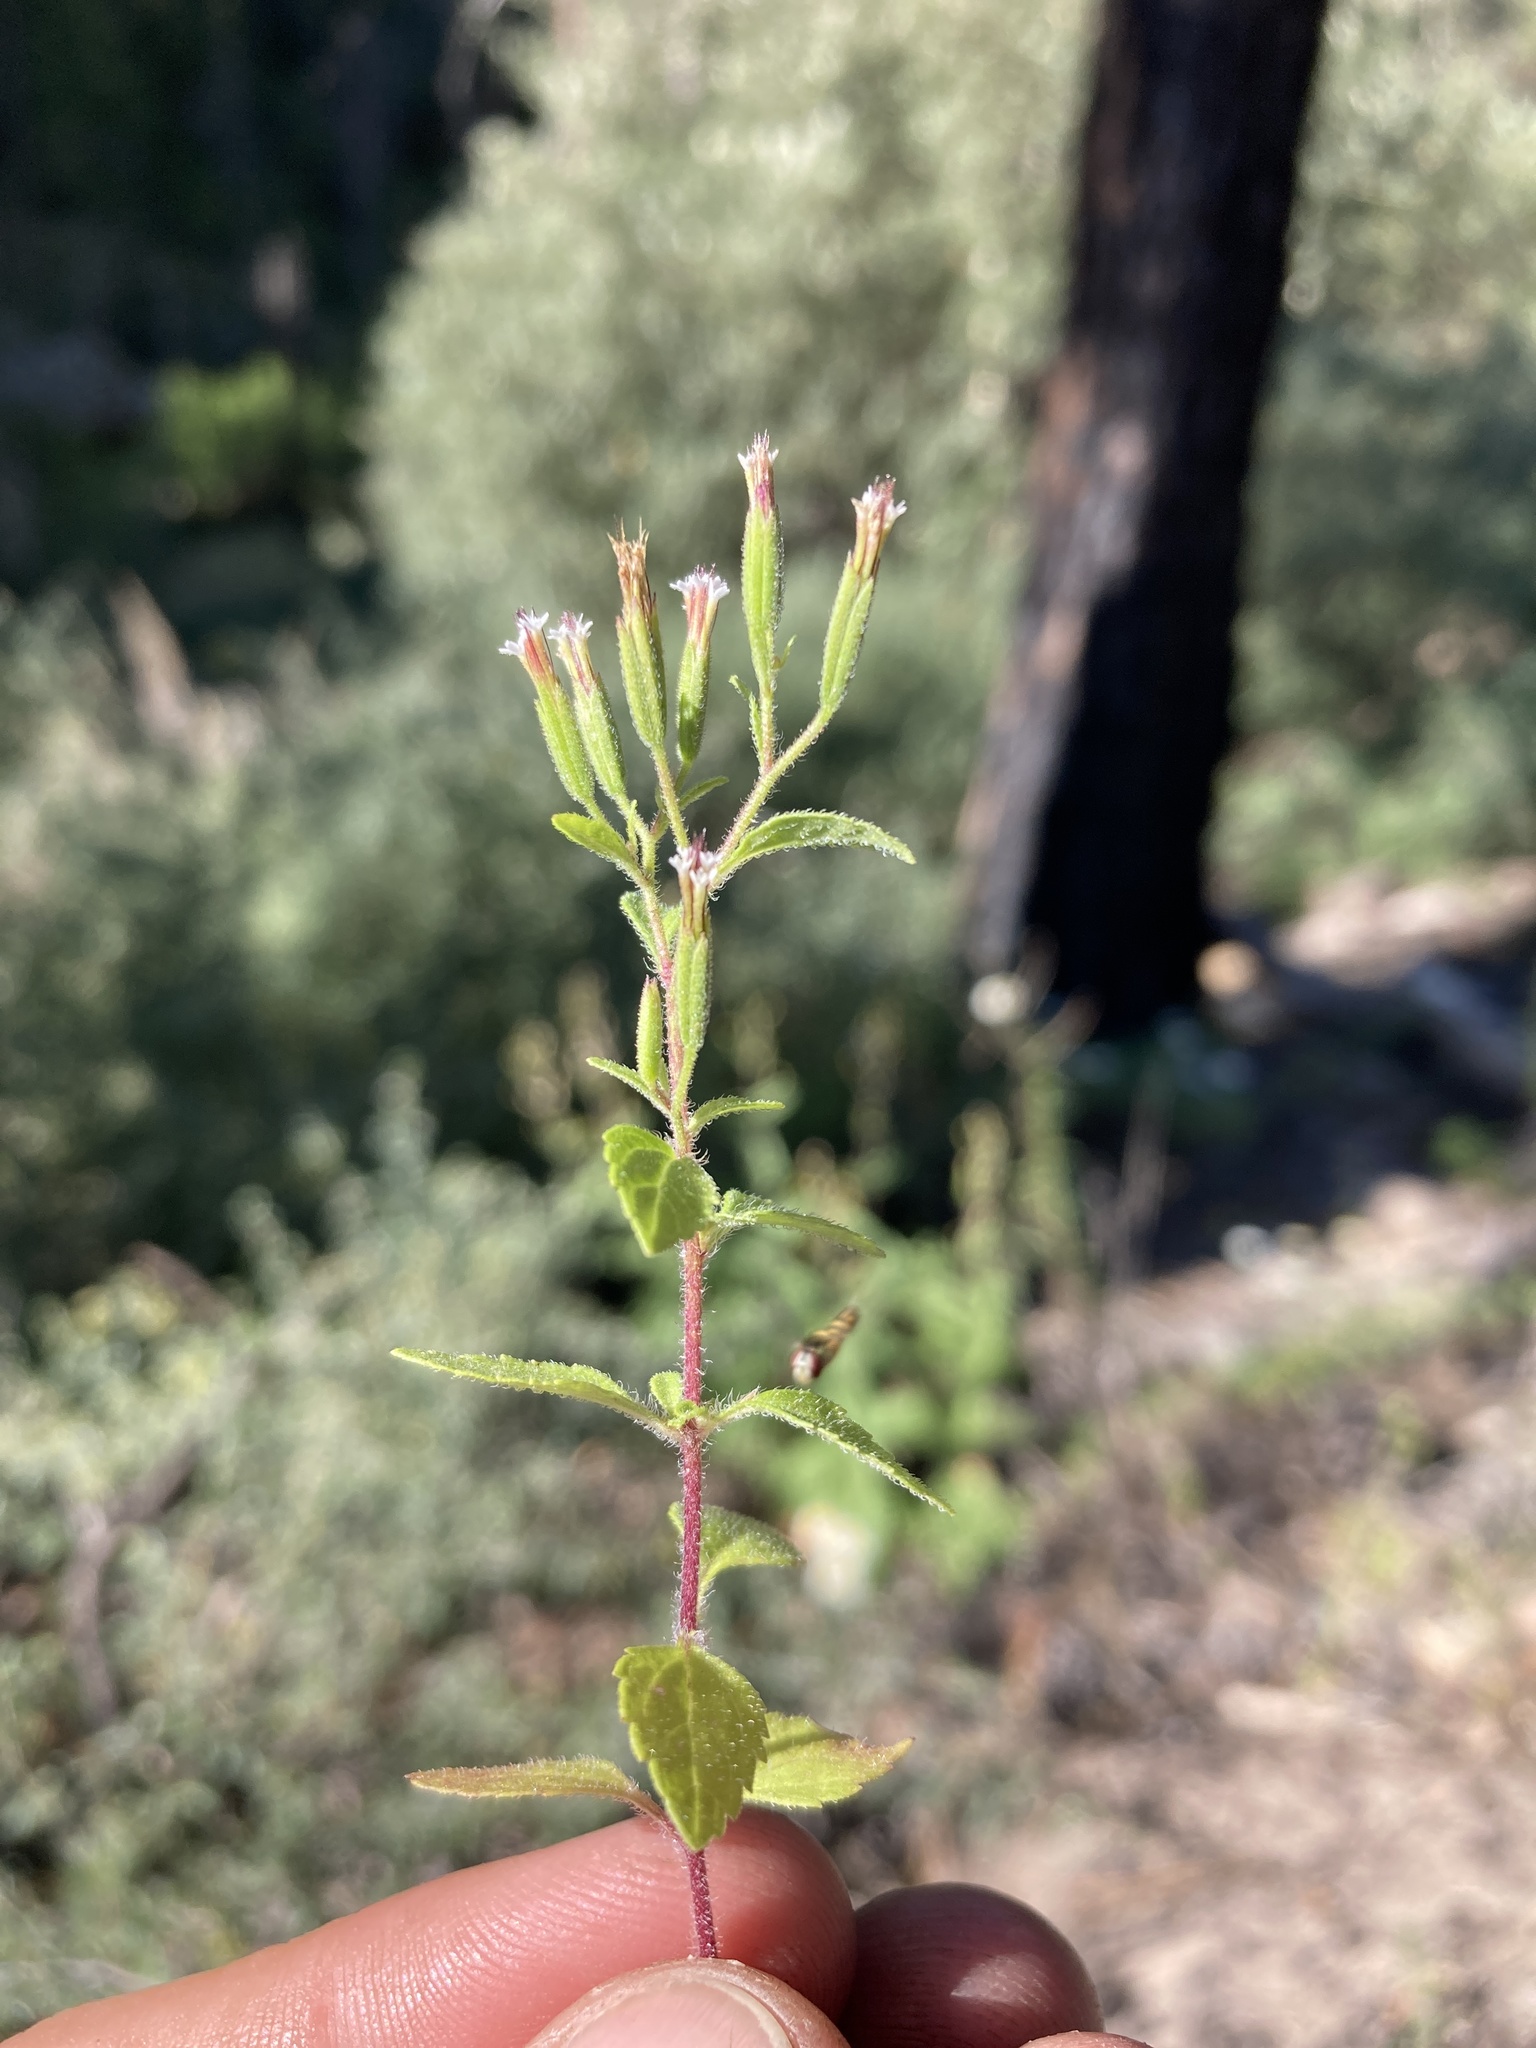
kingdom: Plantae
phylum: Tracheophyta
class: Magnoliopsida
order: Asterales
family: Asteraceae
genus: Stevia
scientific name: Stevia micrantha
